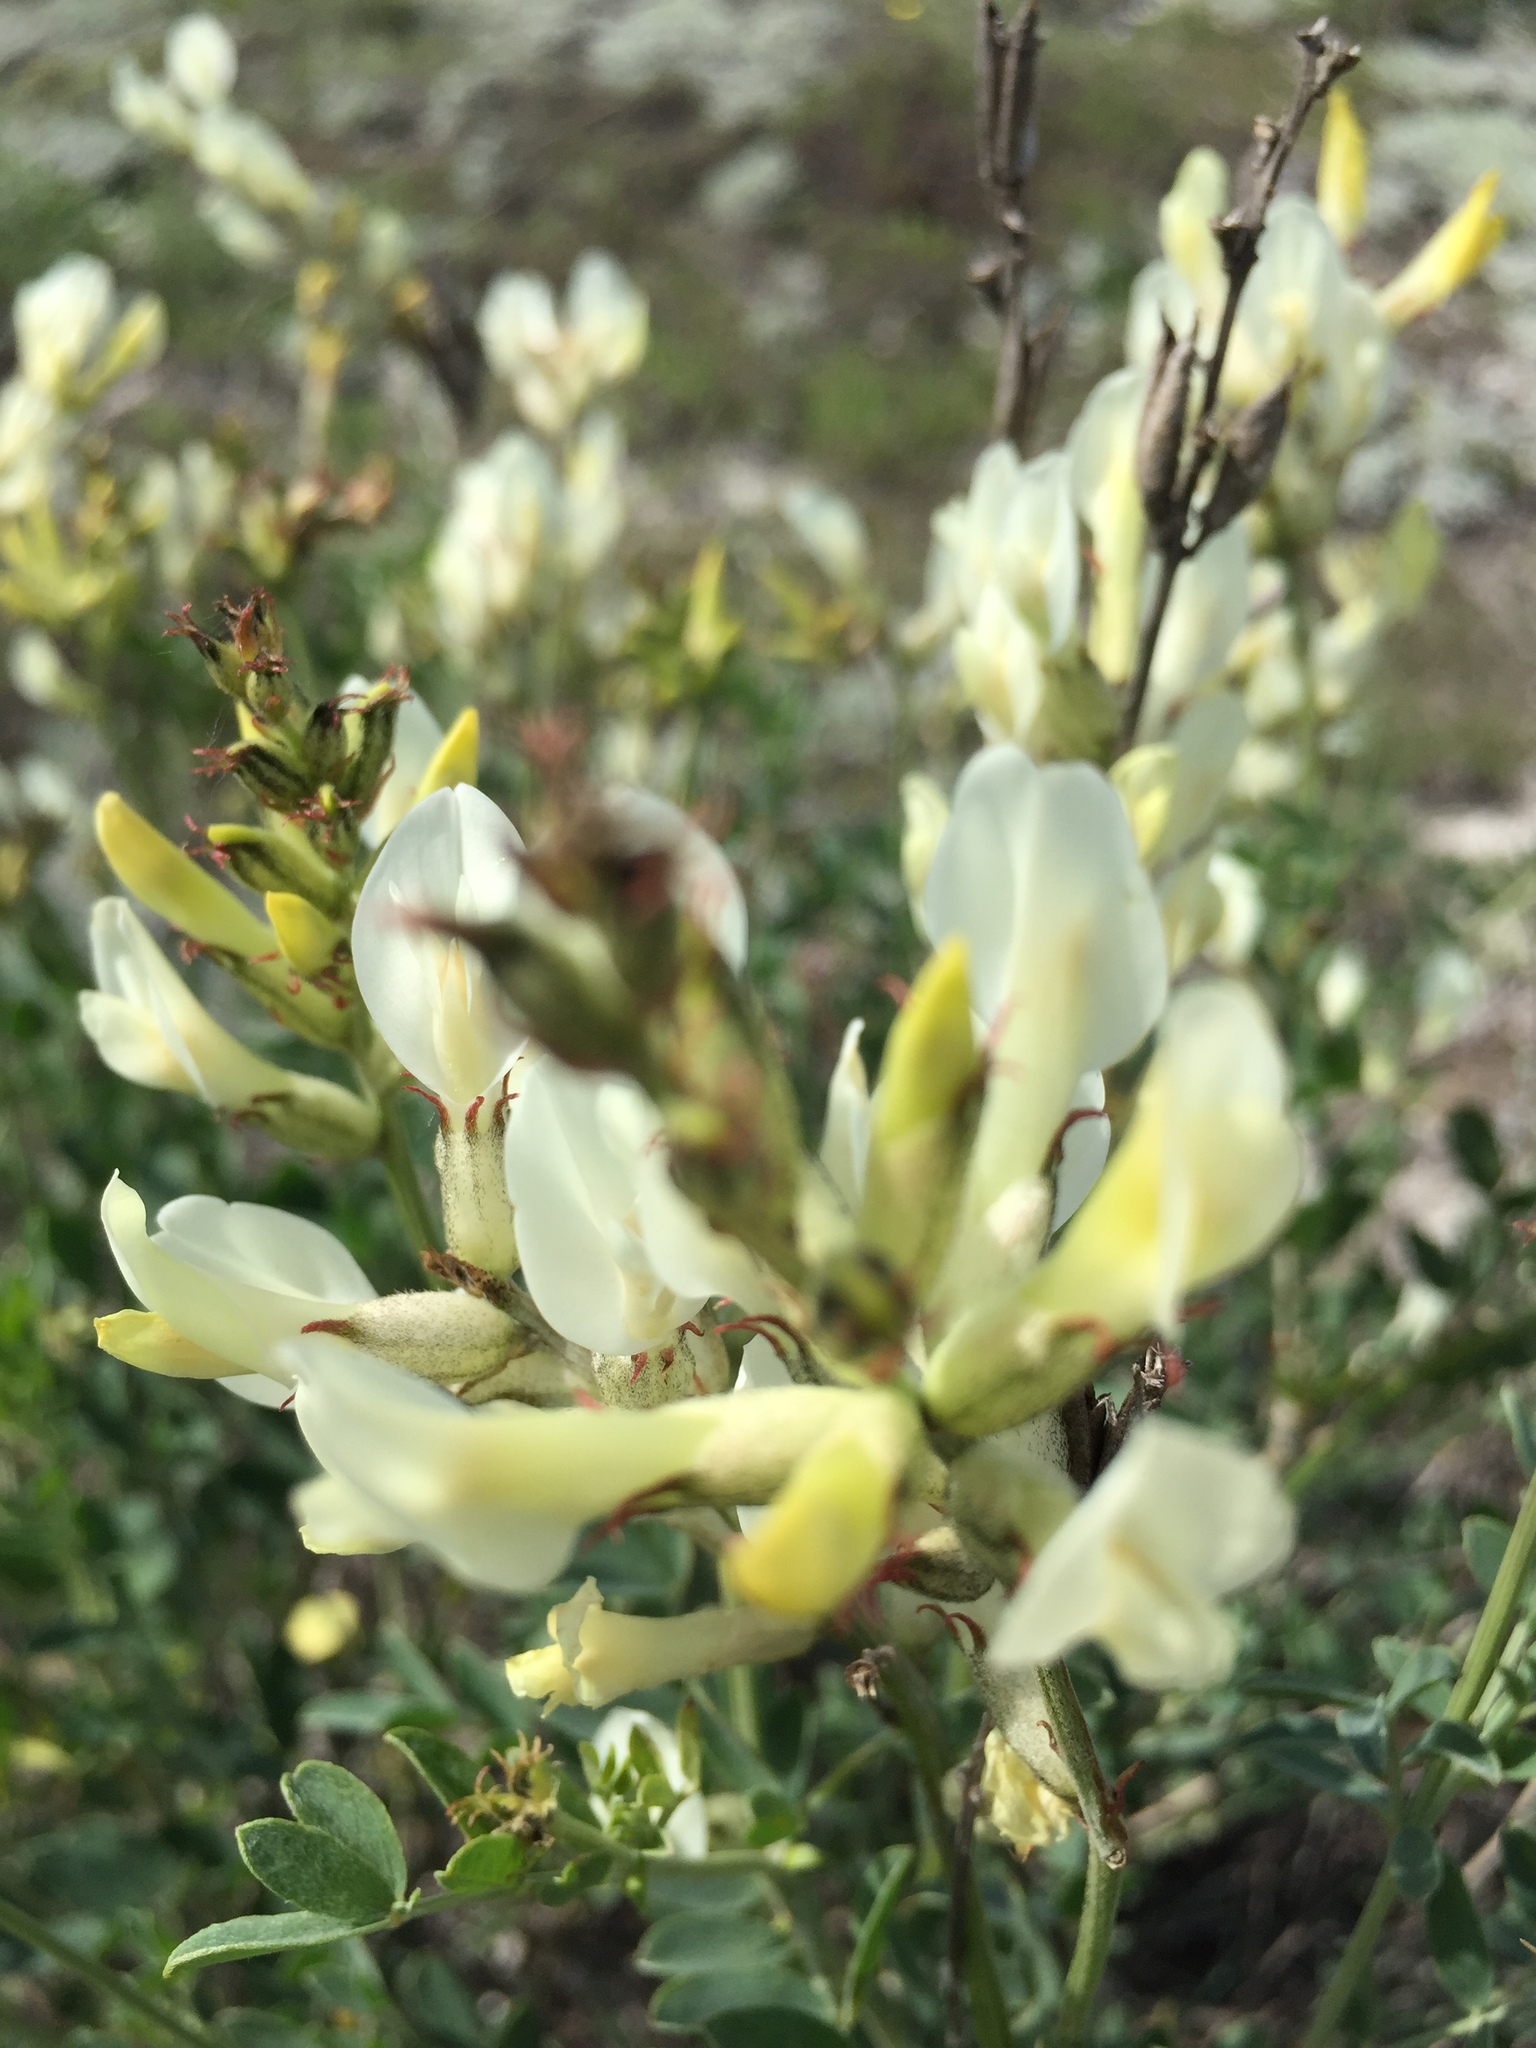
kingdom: Plantae
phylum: Tracheophyta
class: Magnoliopsida
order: Fabales
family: Fabaceae
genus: Astragalus
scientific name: Astragalus albicaulis
